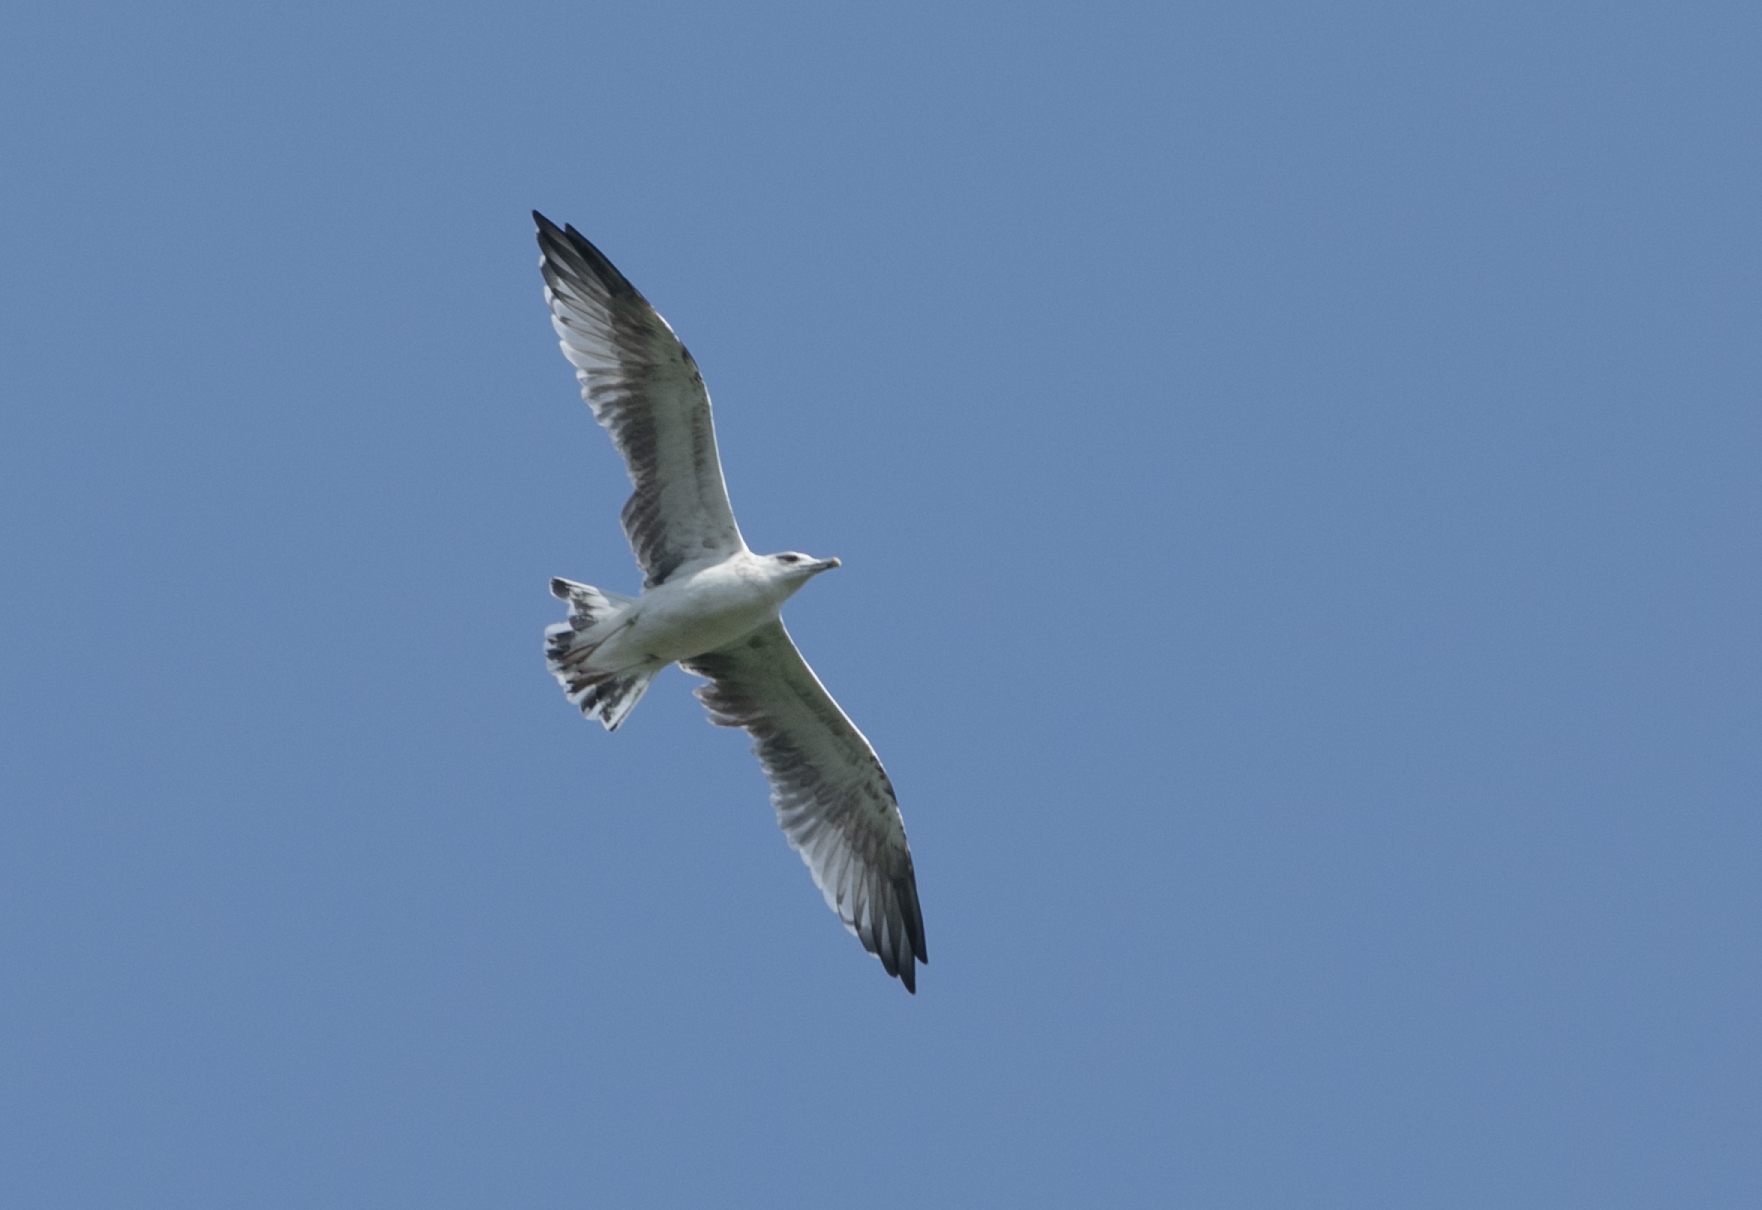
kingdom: Animalia
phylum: Chordata
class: Aves
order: Charadriiformes
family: Laridae
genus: Larus
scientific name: Larus michahellis
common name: Yellow-legged gull
